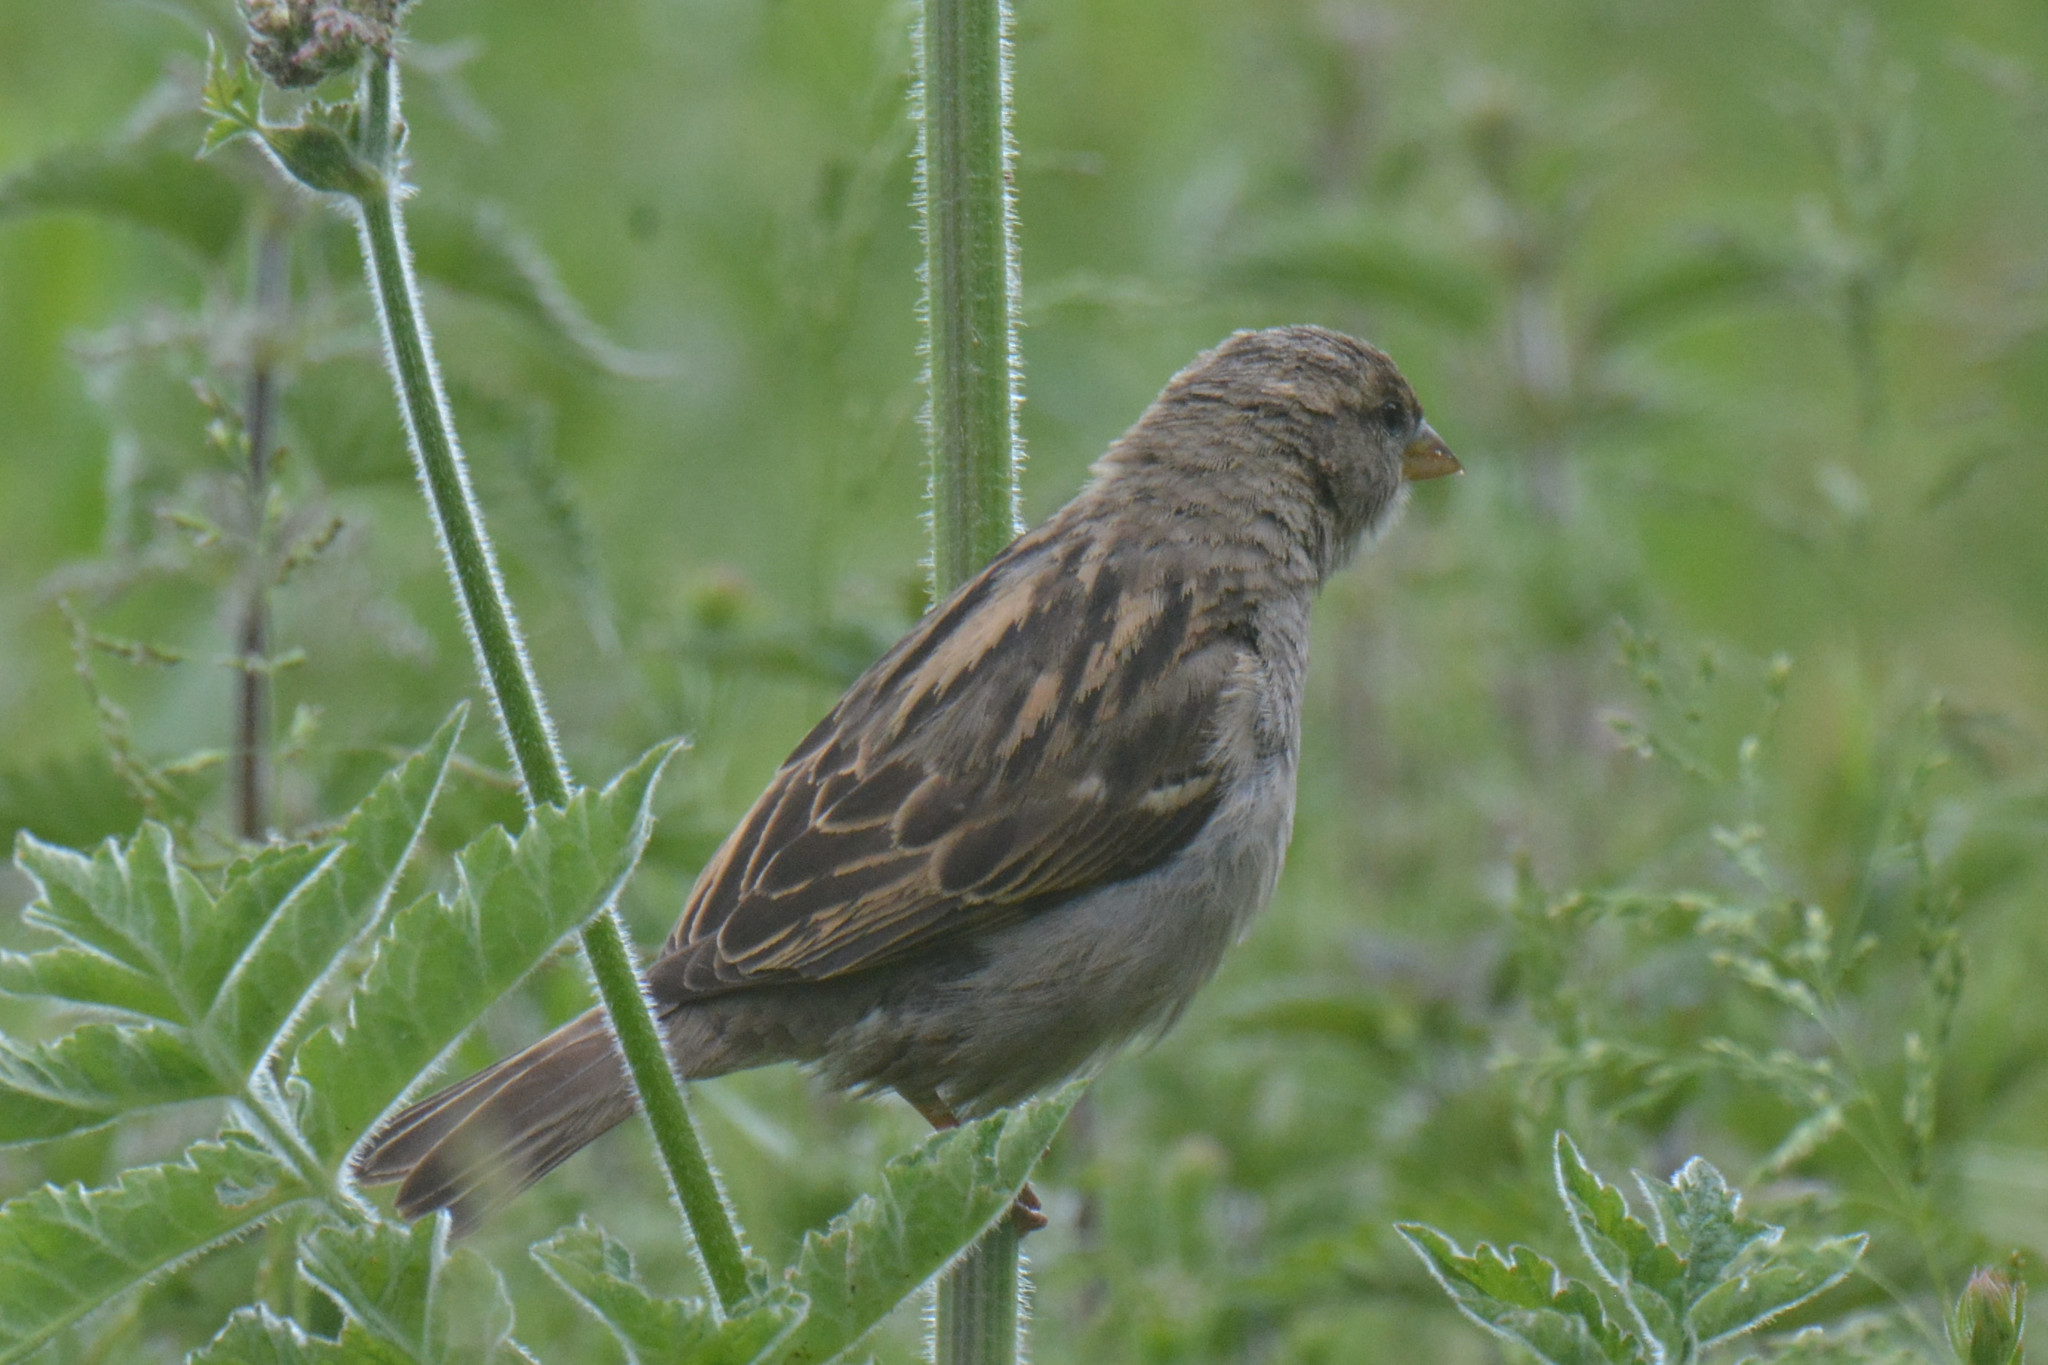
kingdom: Animalia
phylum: Chordata
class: Aves
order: Passeriformes
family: Passeridae
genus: Passer
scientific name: Passer domesticus
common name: House sparrow
